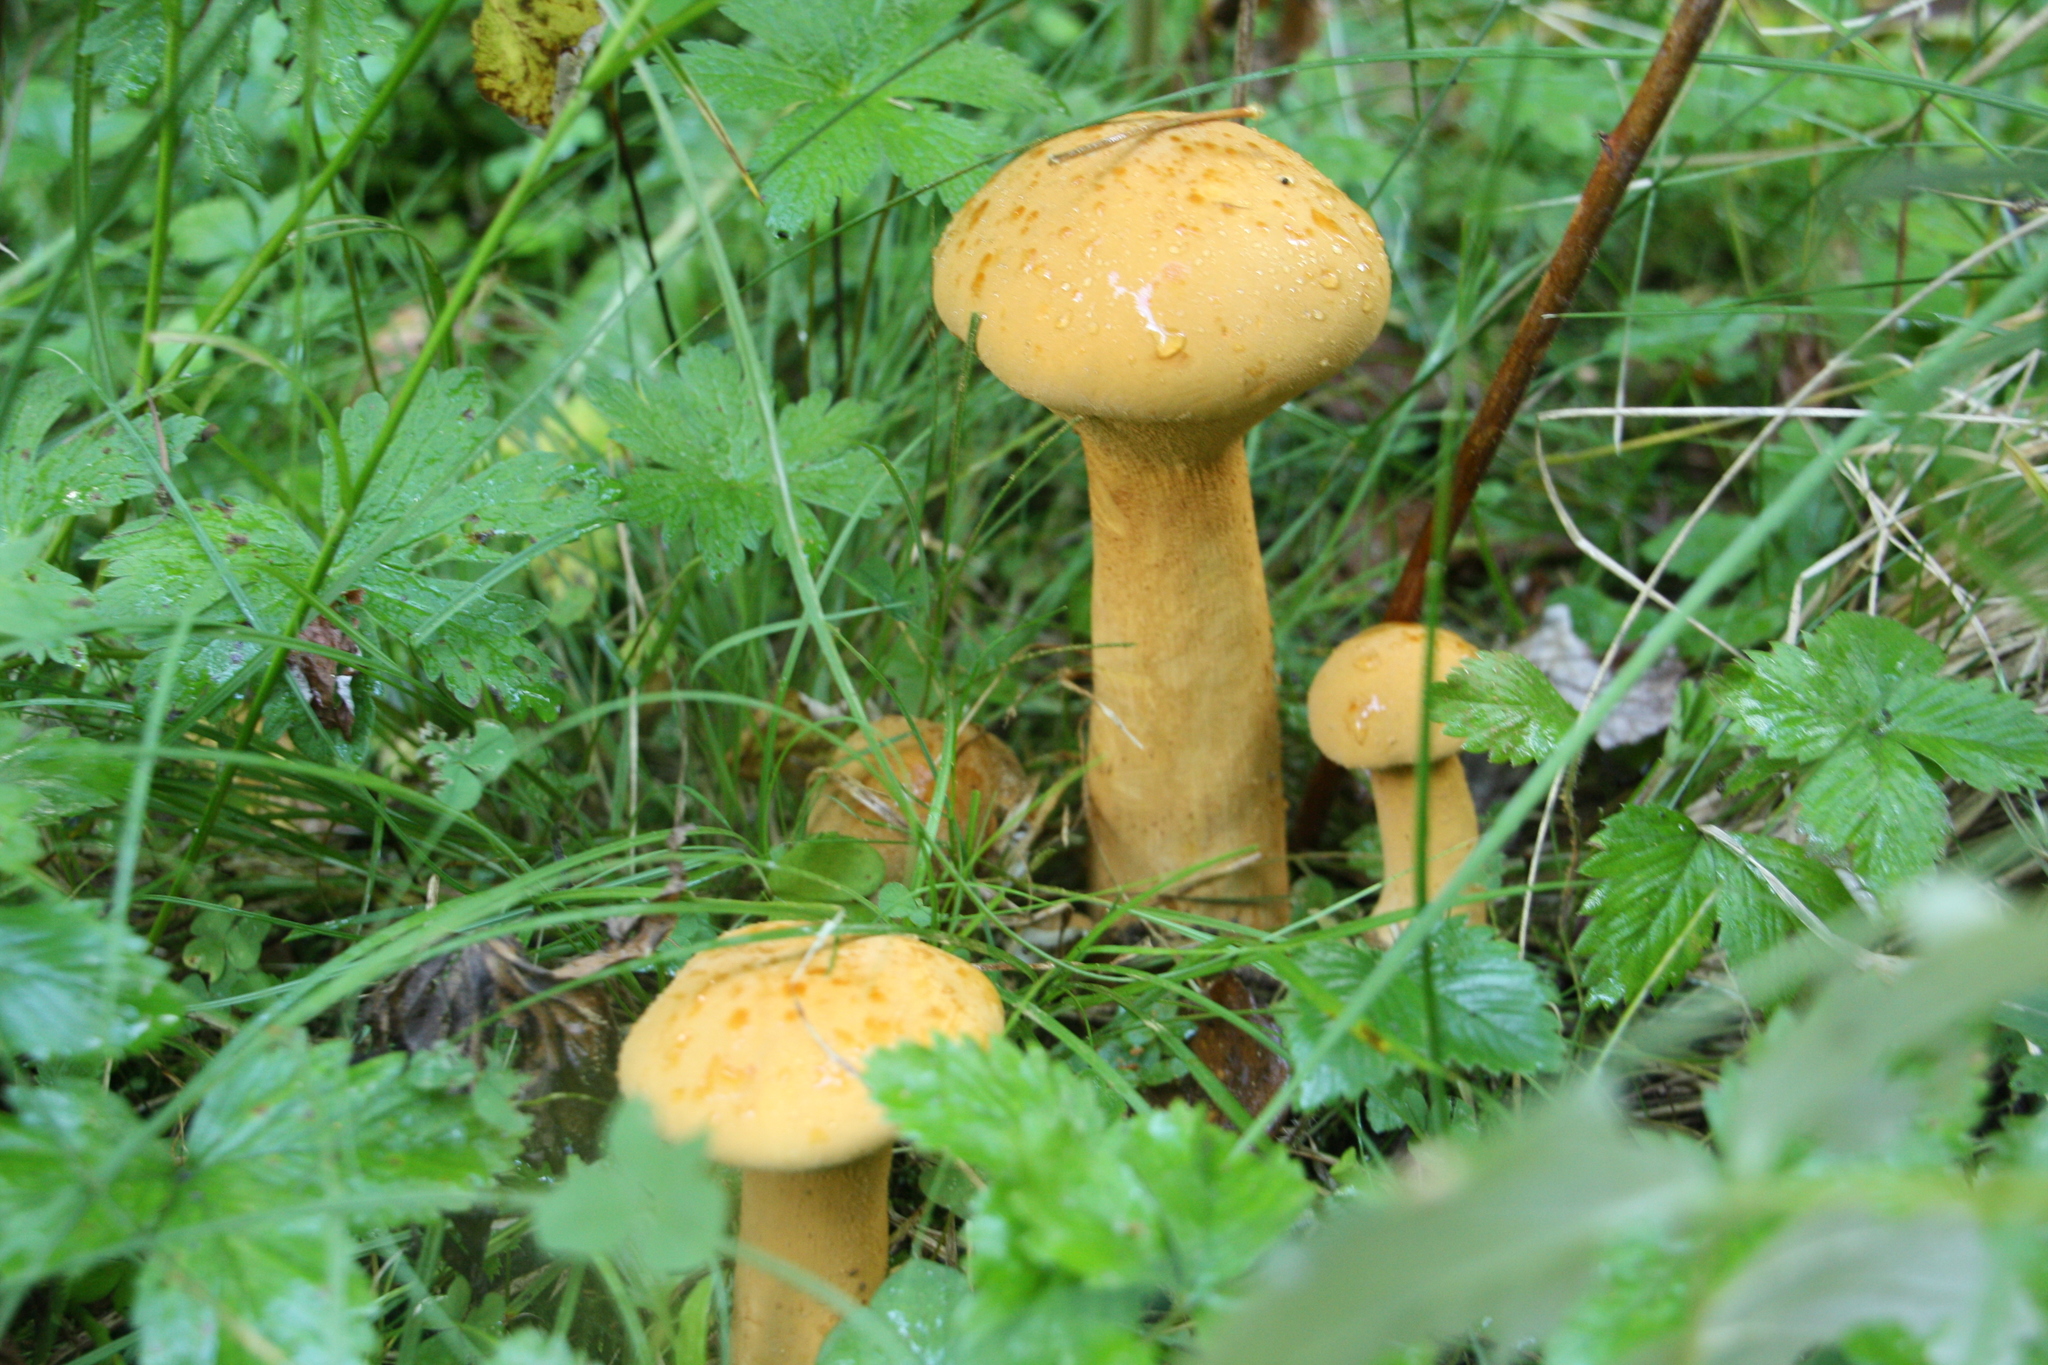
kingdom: Fungi
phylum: Basidiomycota
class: Agaricomycetes
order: Agaricales
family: Tricholomataceae
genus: Phaeolepiota
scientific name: Phaeolepiota aurea
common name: Golden bootleg
